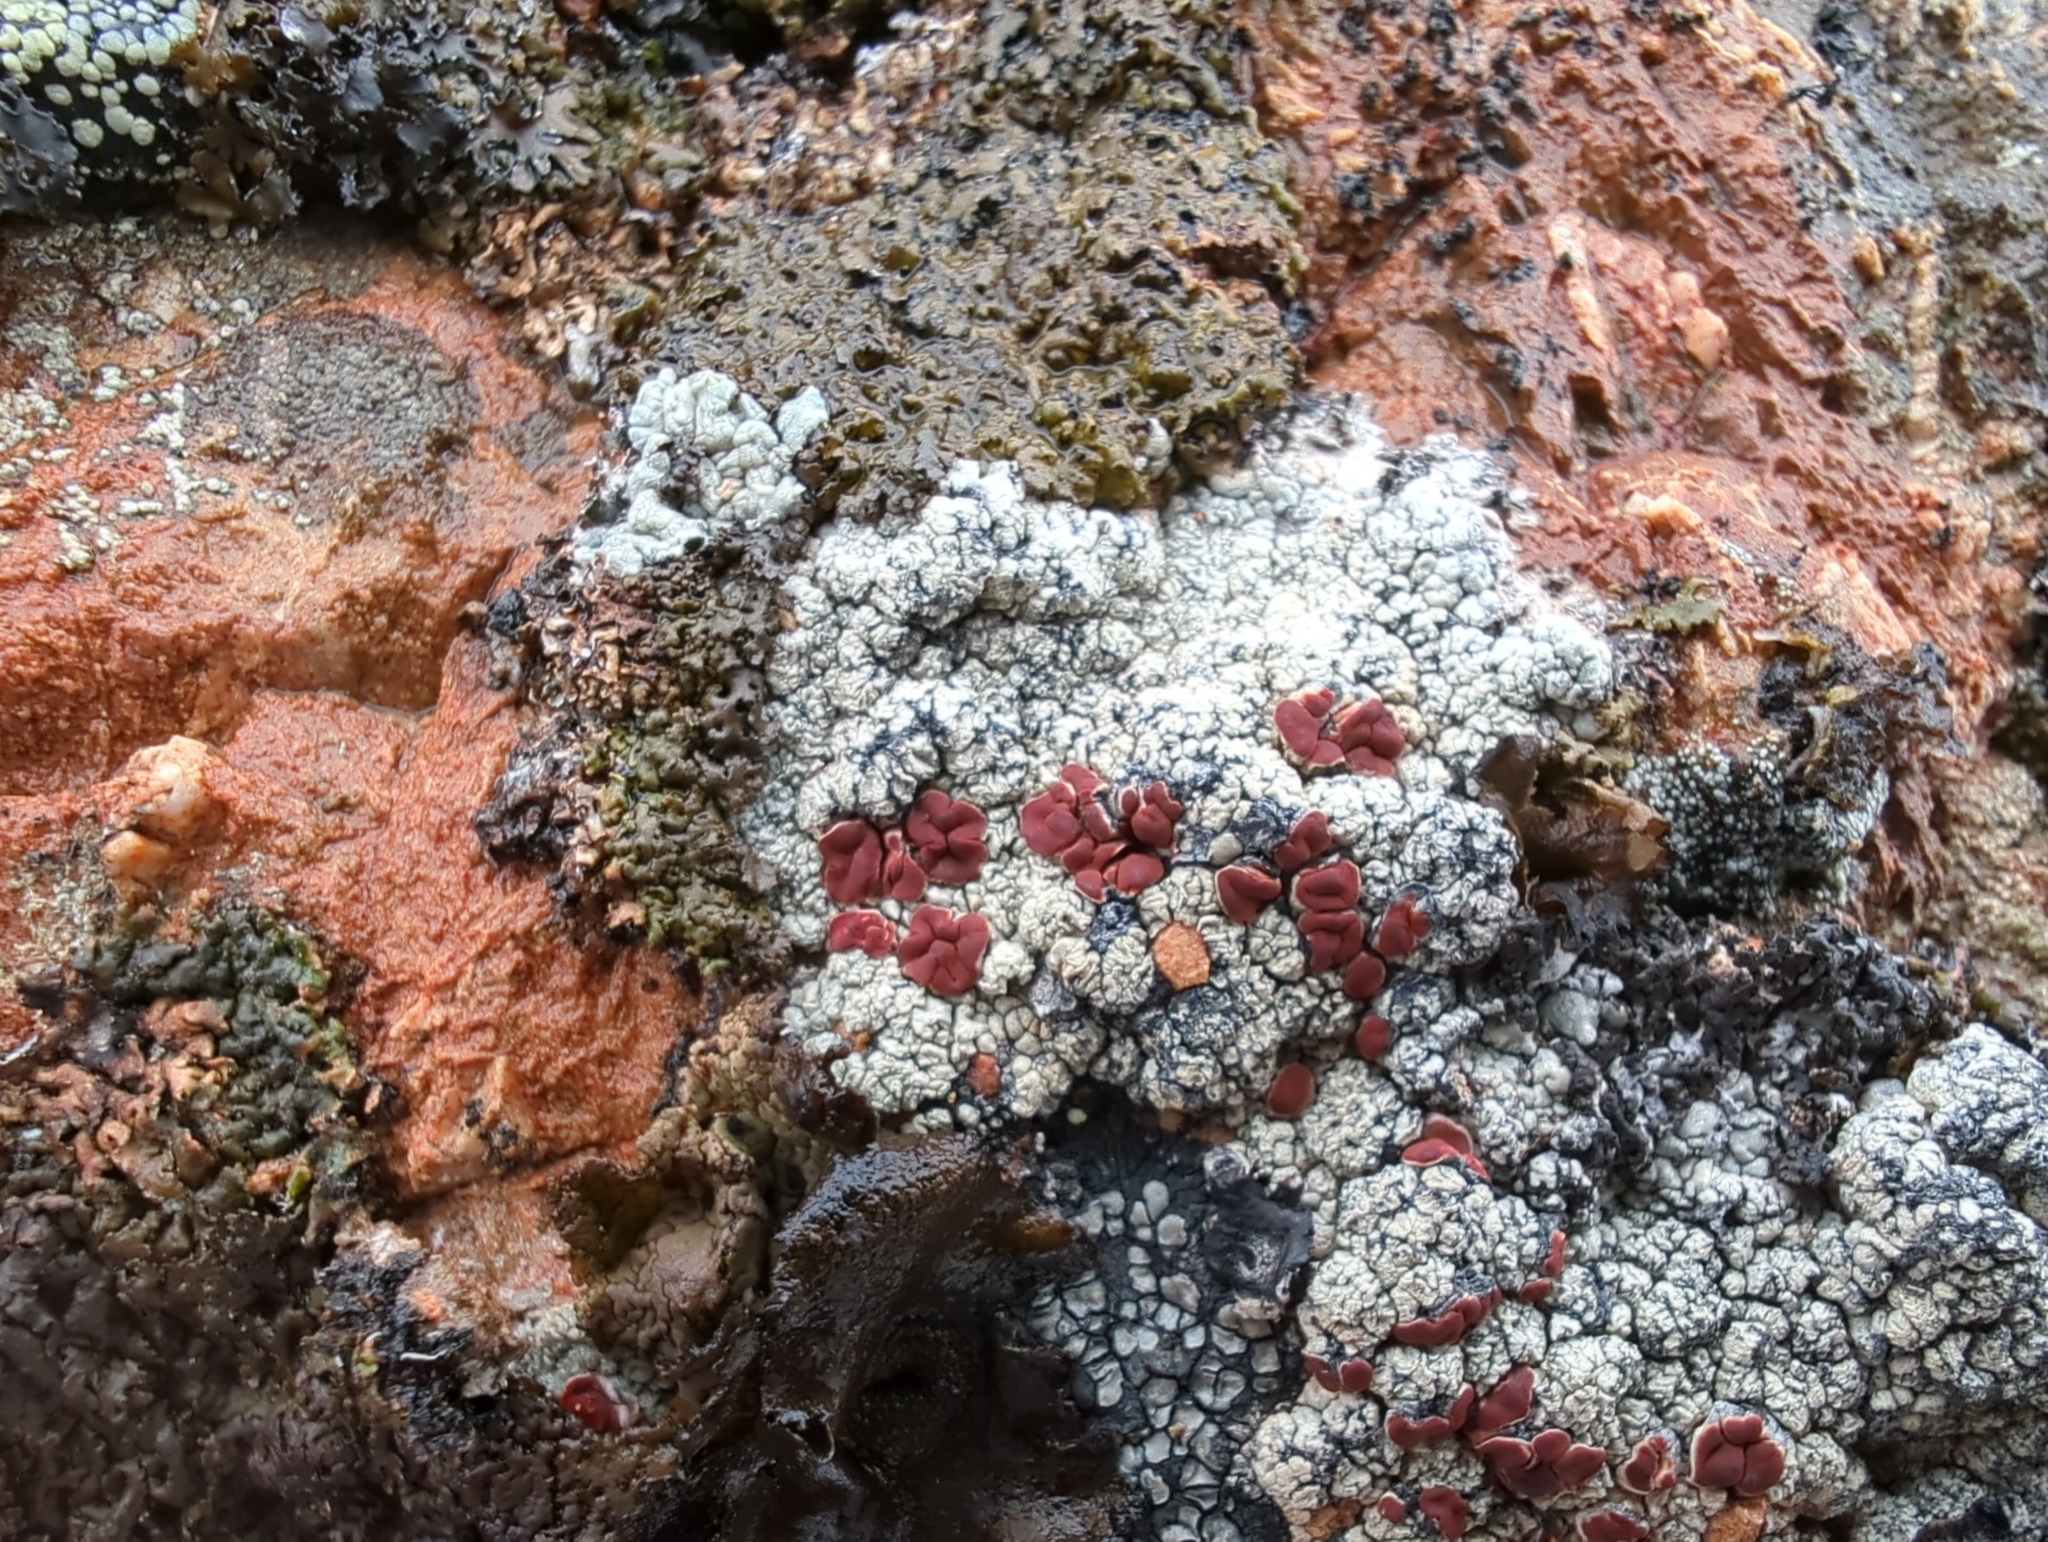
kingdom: Fungi
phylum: Ascomycota
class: Lecanoromycetes
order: Umbilicariales
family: Ophioparmaceae
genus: Ophioparma
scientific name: Ophioparma ventosa
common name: Blood-spot
